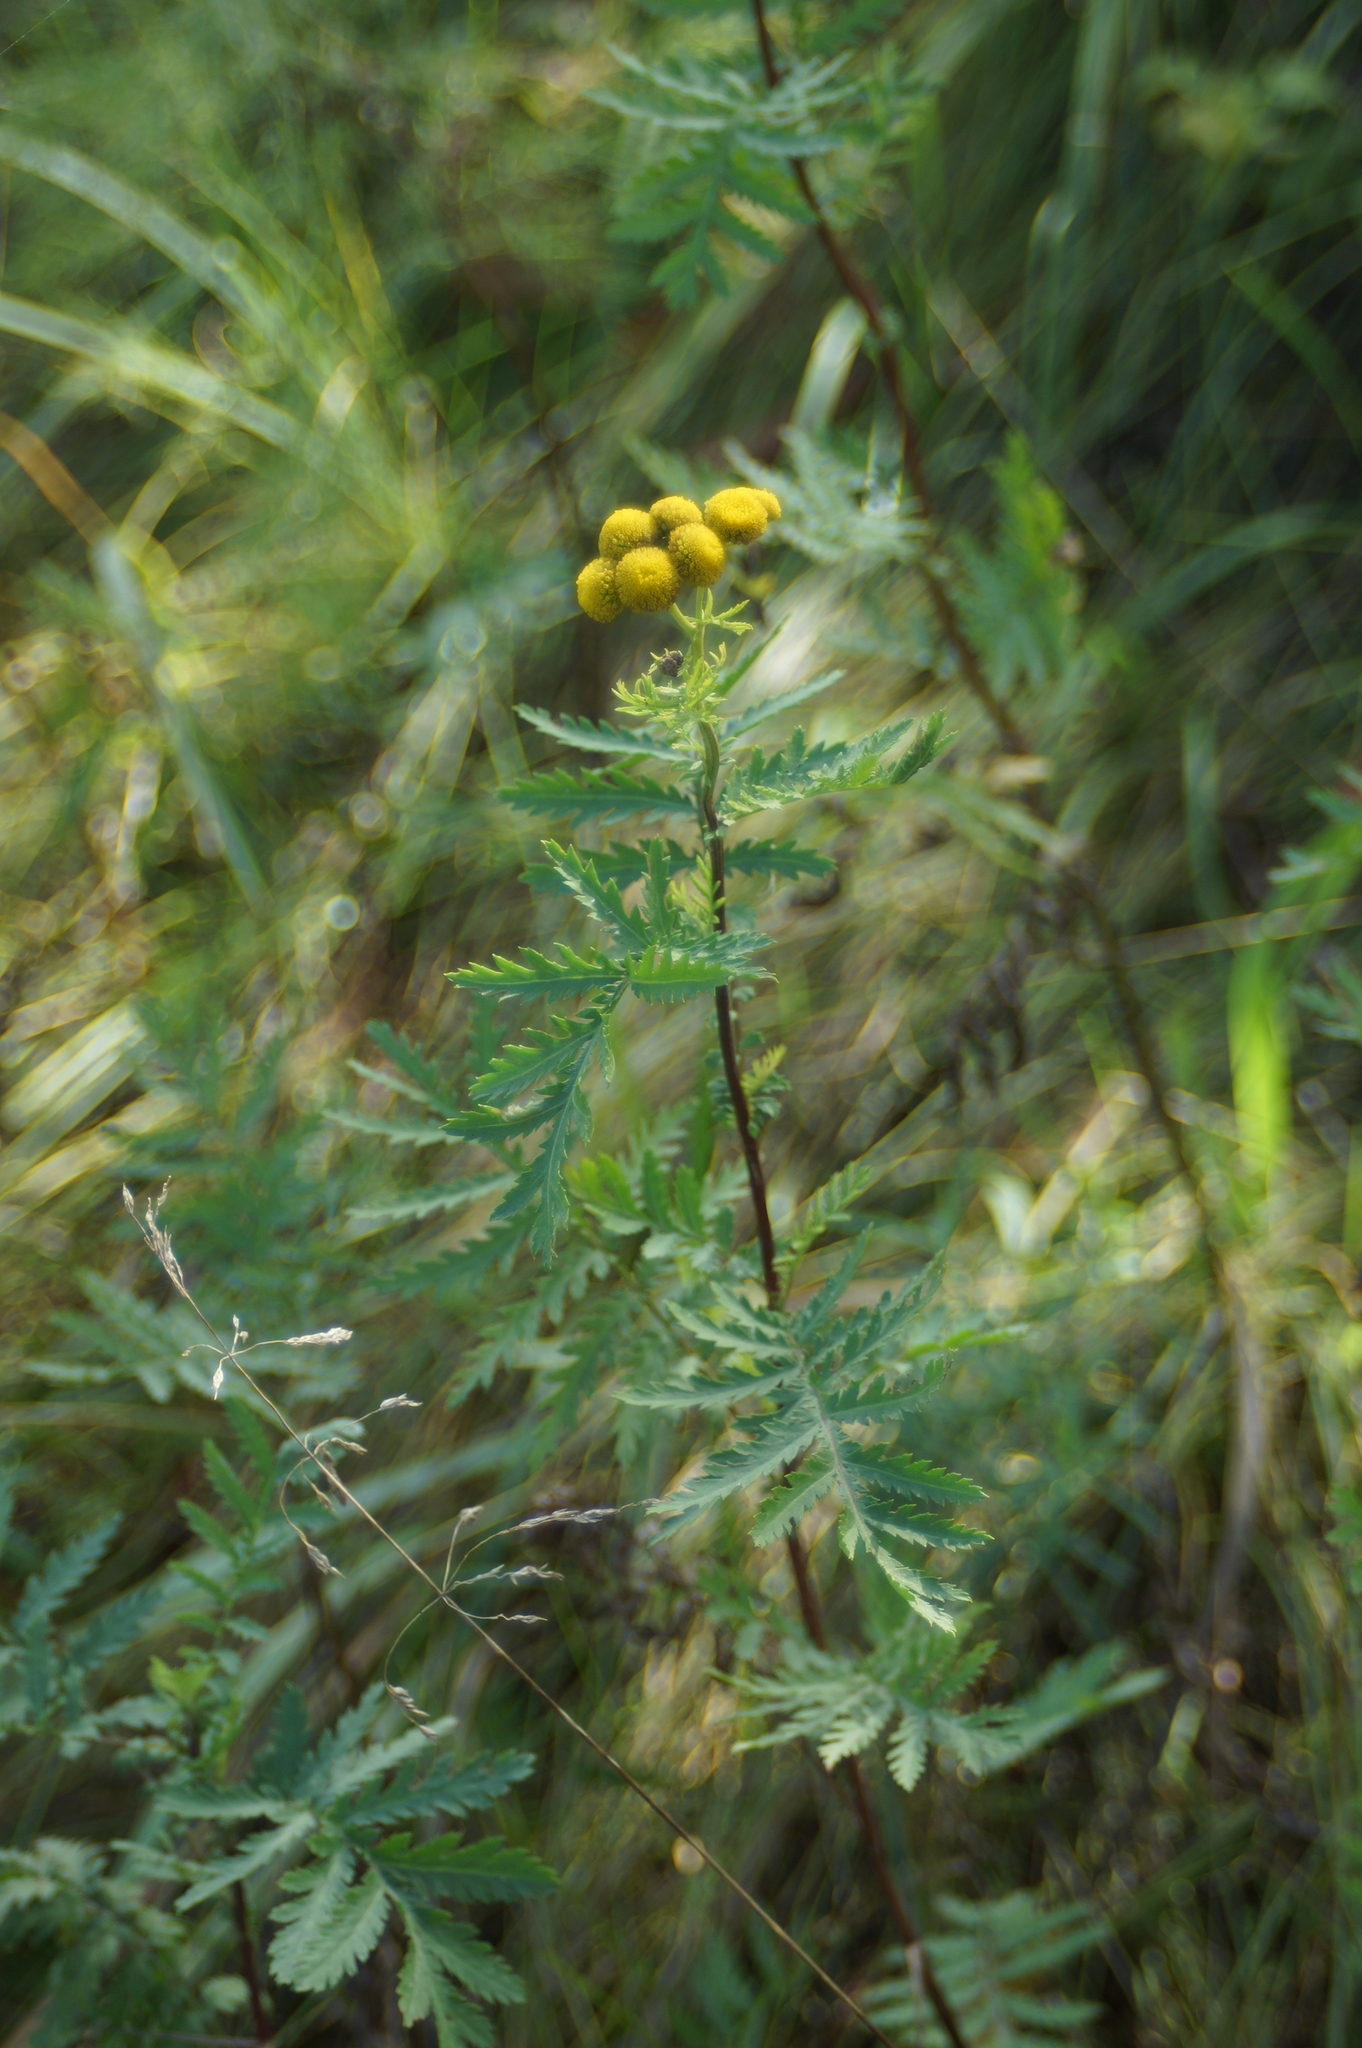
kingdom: Plantae
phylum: Tracheophyta
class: Magnoliopsida
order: Asterales
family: Asteraceae
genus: Tanacetum
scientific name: Tanacetum vulgare
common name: Common tansy
